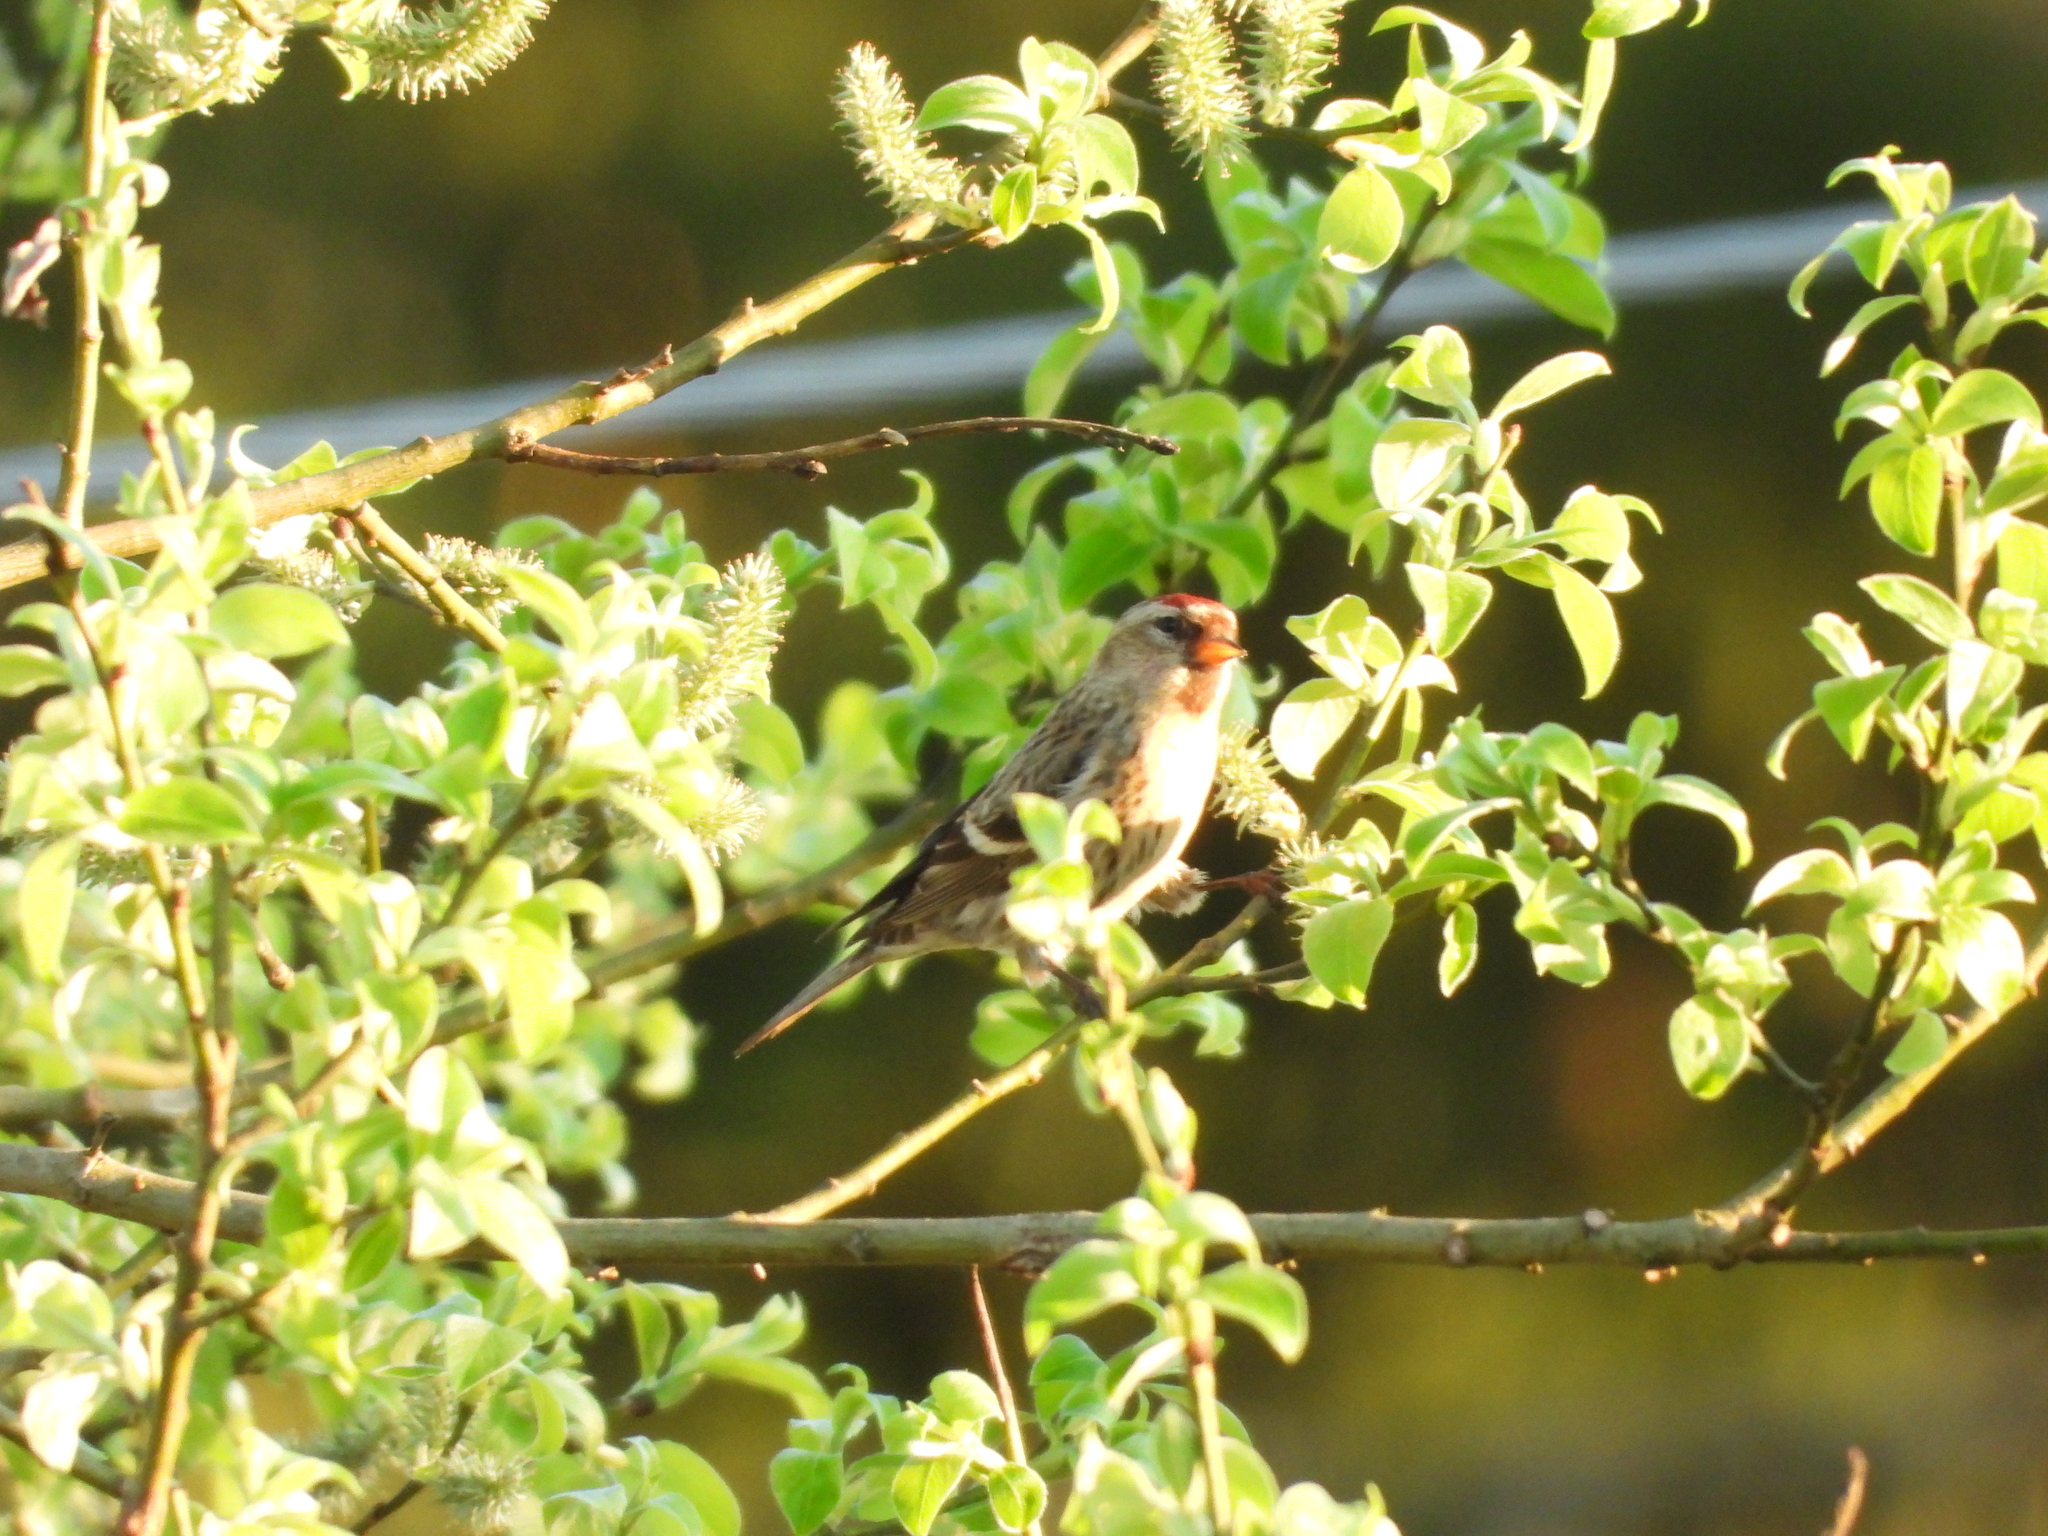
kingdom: Animalia
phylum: Chordata
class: Aves
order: Passeriformes
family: Fringillidae
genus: Acanthis
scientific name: Acanthis flammea
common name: Common redpoll
